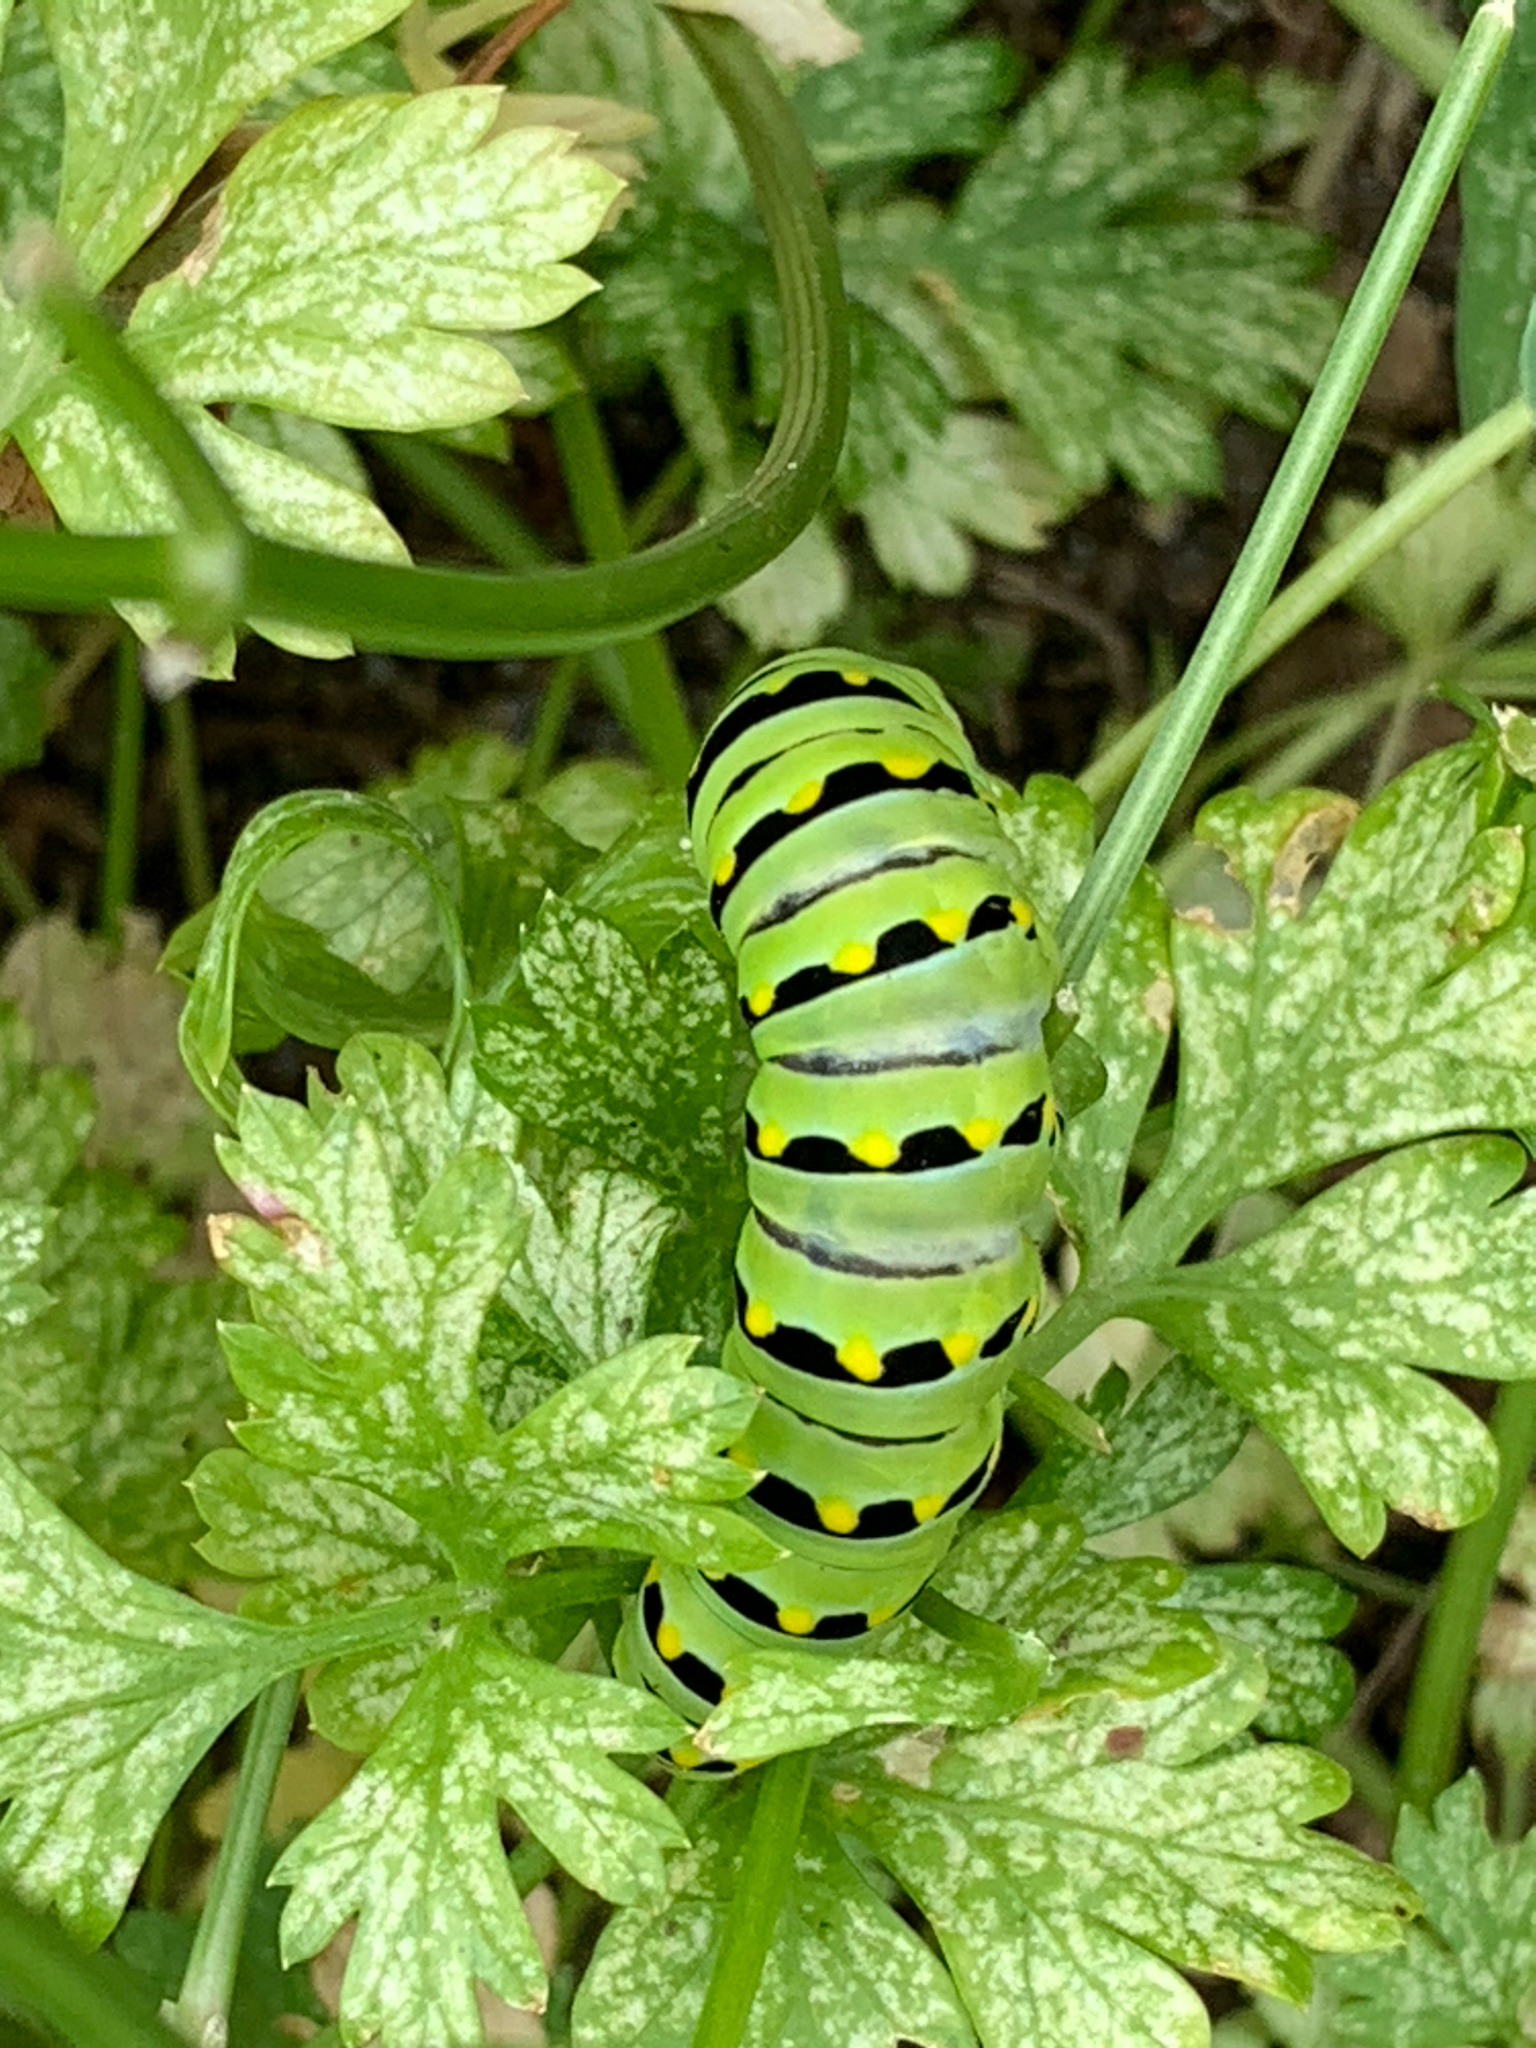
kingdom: Animalia
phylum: Arthropoda
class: Insecta
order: Lepidoptera
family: Papilionidae
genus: Papilio
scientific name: Papilio polyxenes
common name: Black swallowtail
